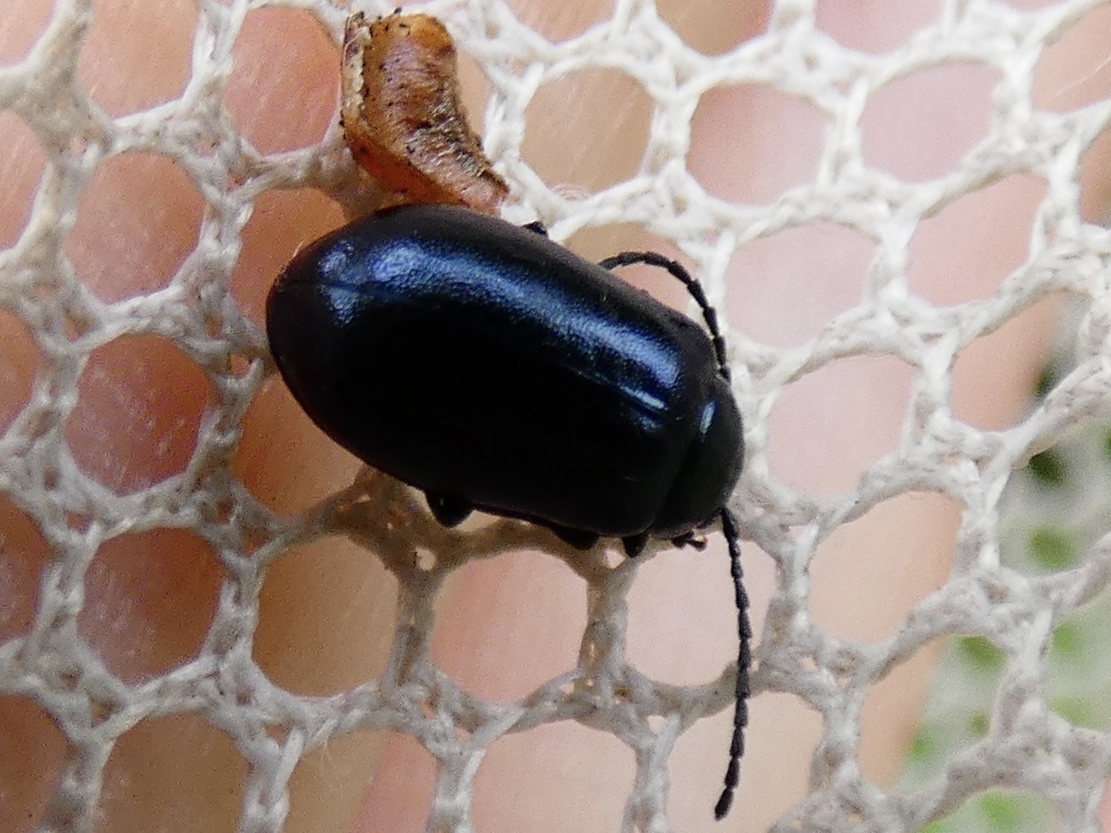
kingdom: Animalia
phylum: Arthropoda
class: Insecta
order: Coleoptera
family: Chrysomelidae
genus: Agelastica
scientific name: Agelastica alni
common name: Alder leaf beetle
